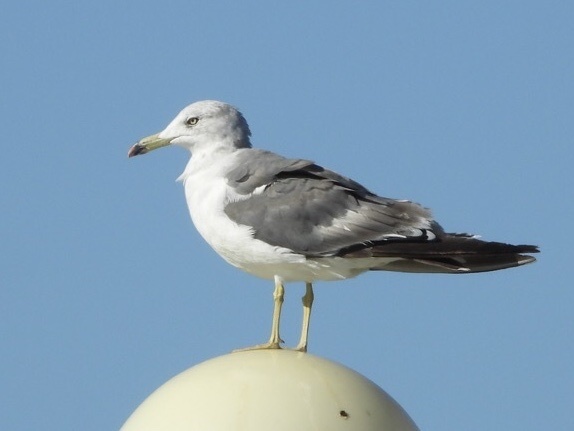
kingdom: Animalia
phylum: Chordata
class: Aves
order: Charadriiformes
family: Laridae
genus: Larus
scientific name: Larus crassirostris
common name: Black-tailed gull
